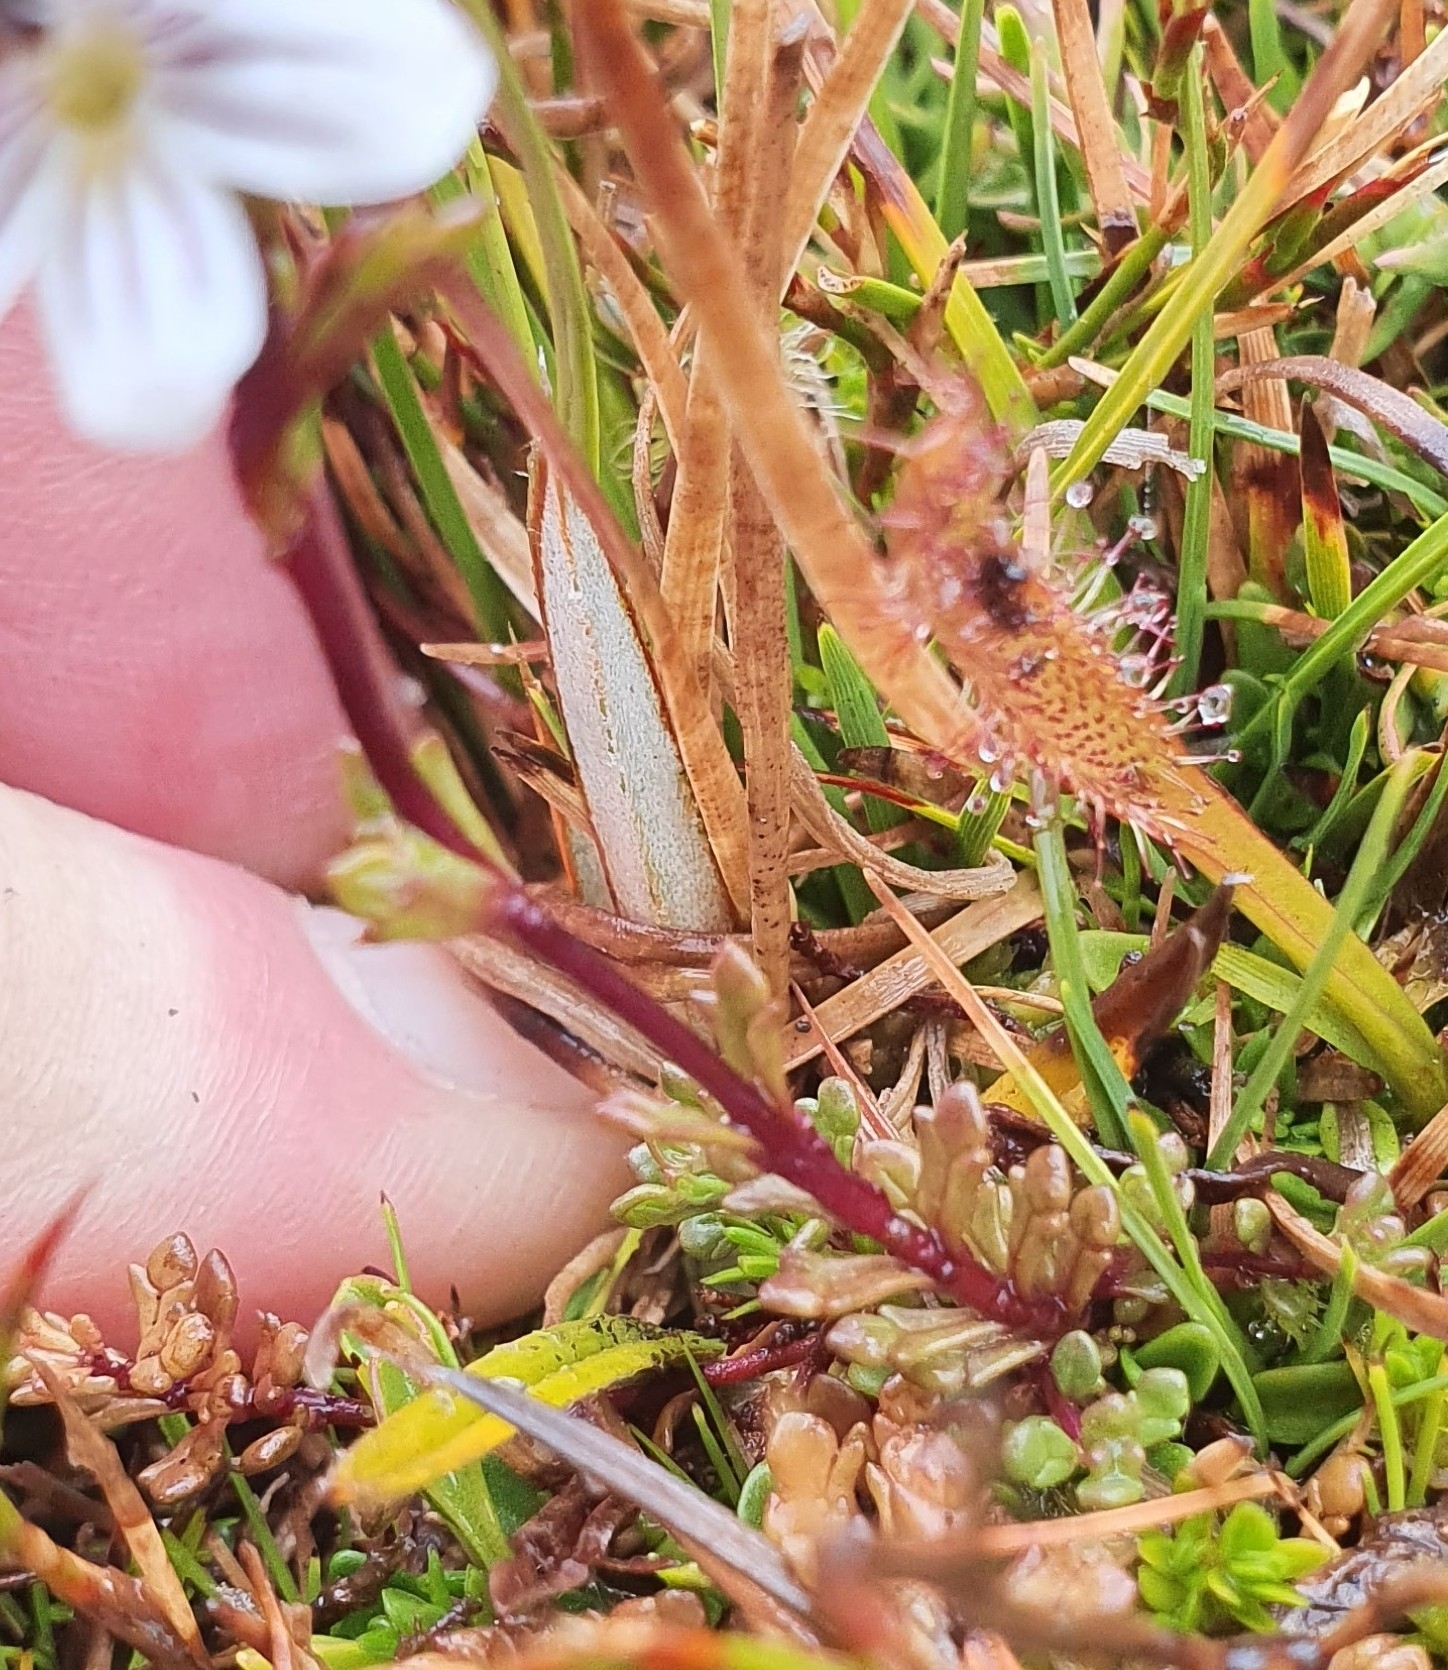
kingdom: Plantae
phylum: Tracheophyta
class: Magnoliopsida
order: Lamiales
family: Orobanchaceae
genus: Euphrasia
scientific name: Euphrasia striata
